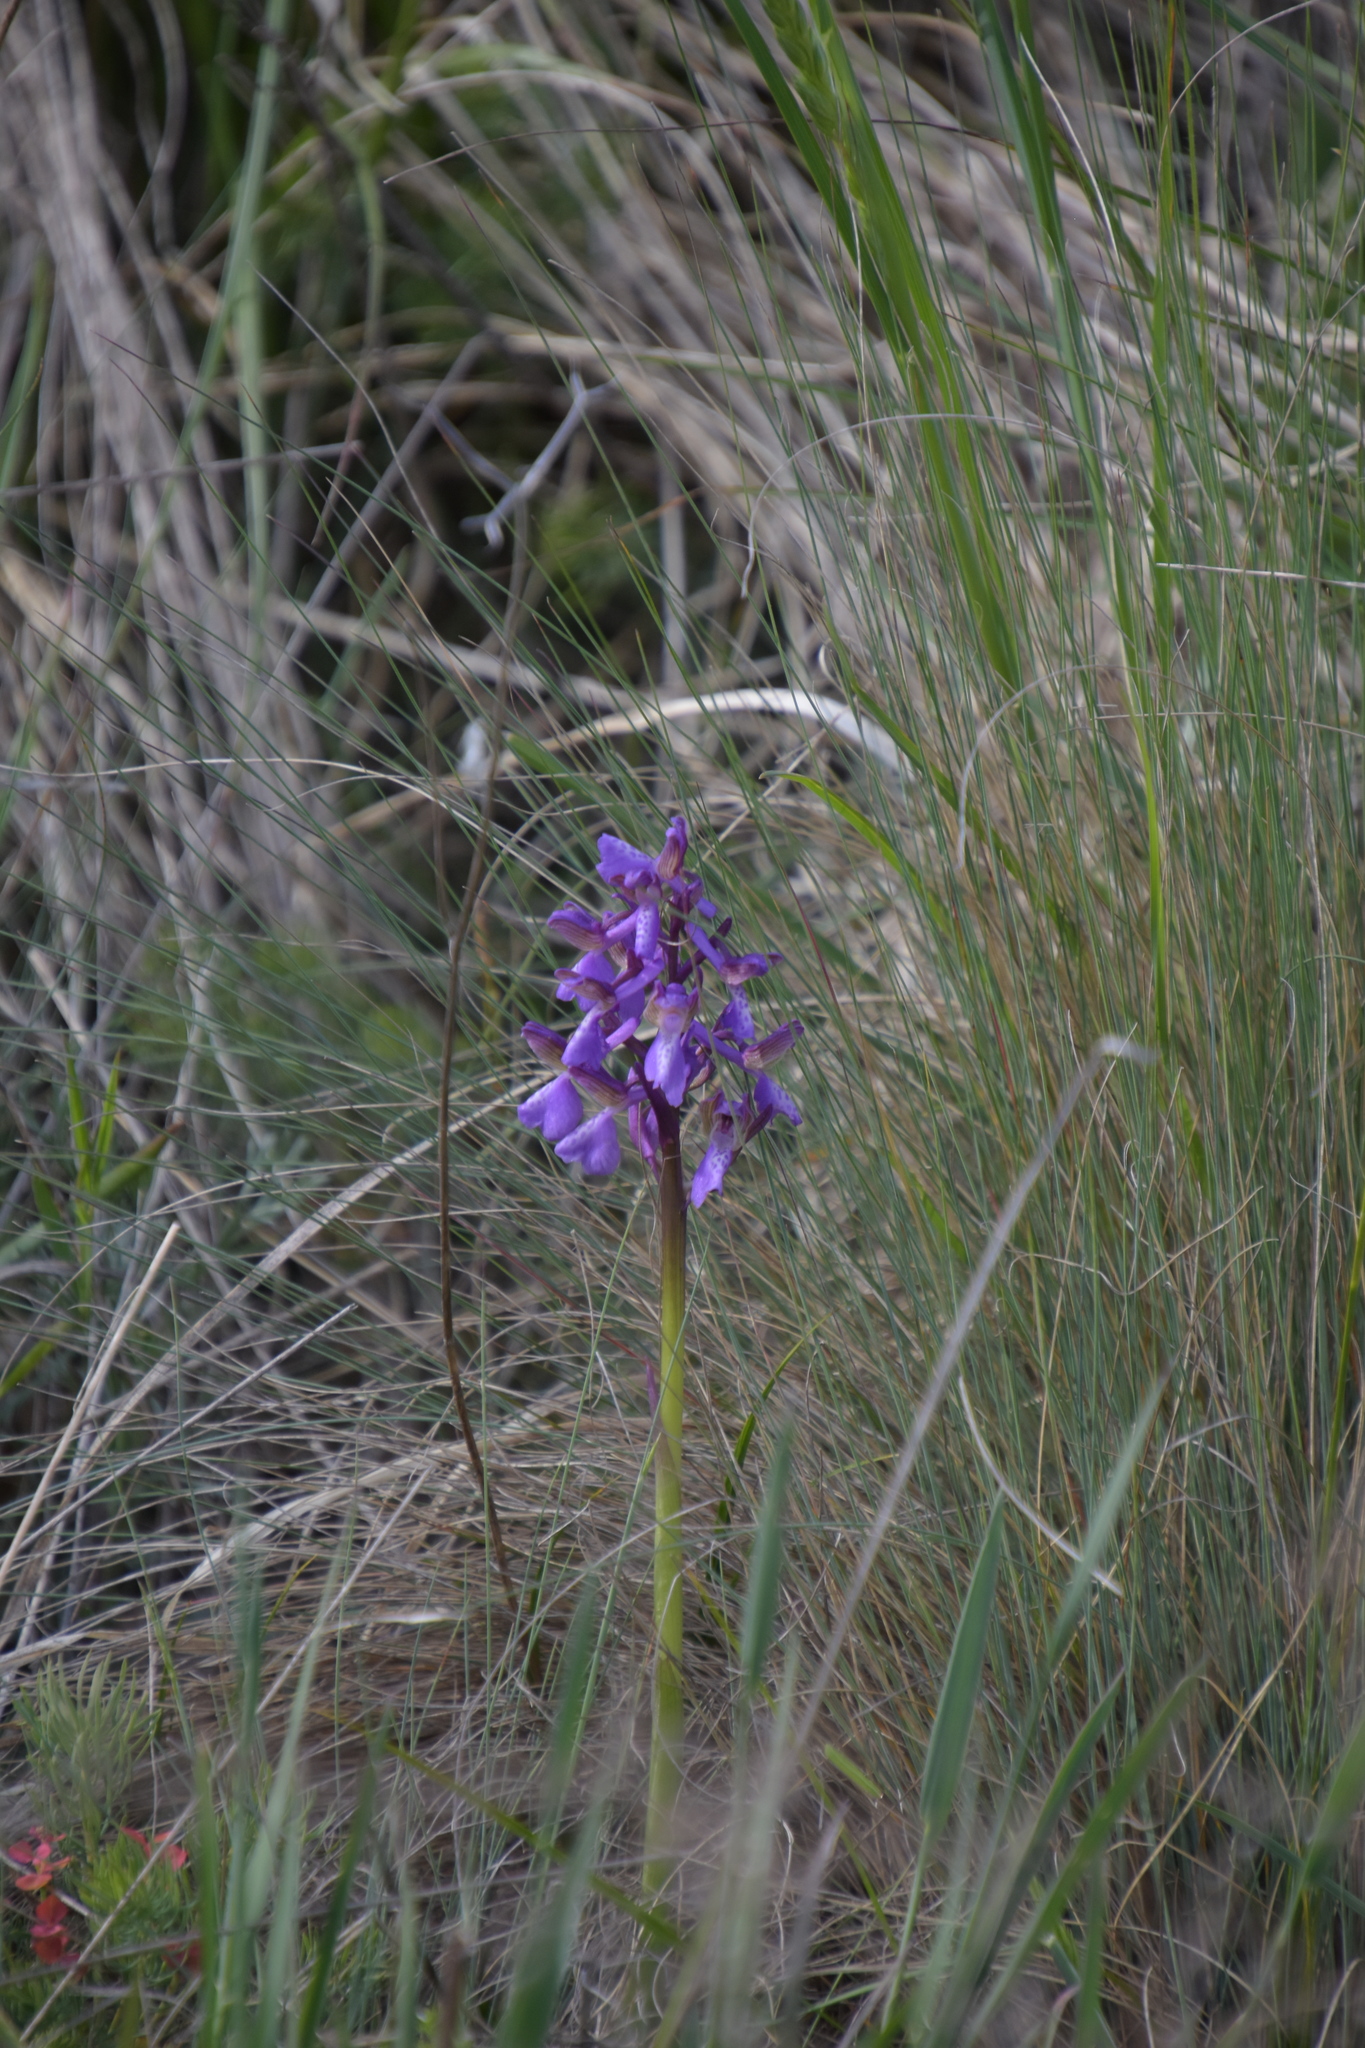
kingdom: Plantae
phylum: Tracheophyta
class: Liliopsida
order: Asparagales
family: Orchidaceae
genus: Anacamptis
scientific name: Anacamptis morio
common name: Green-winged orchid
